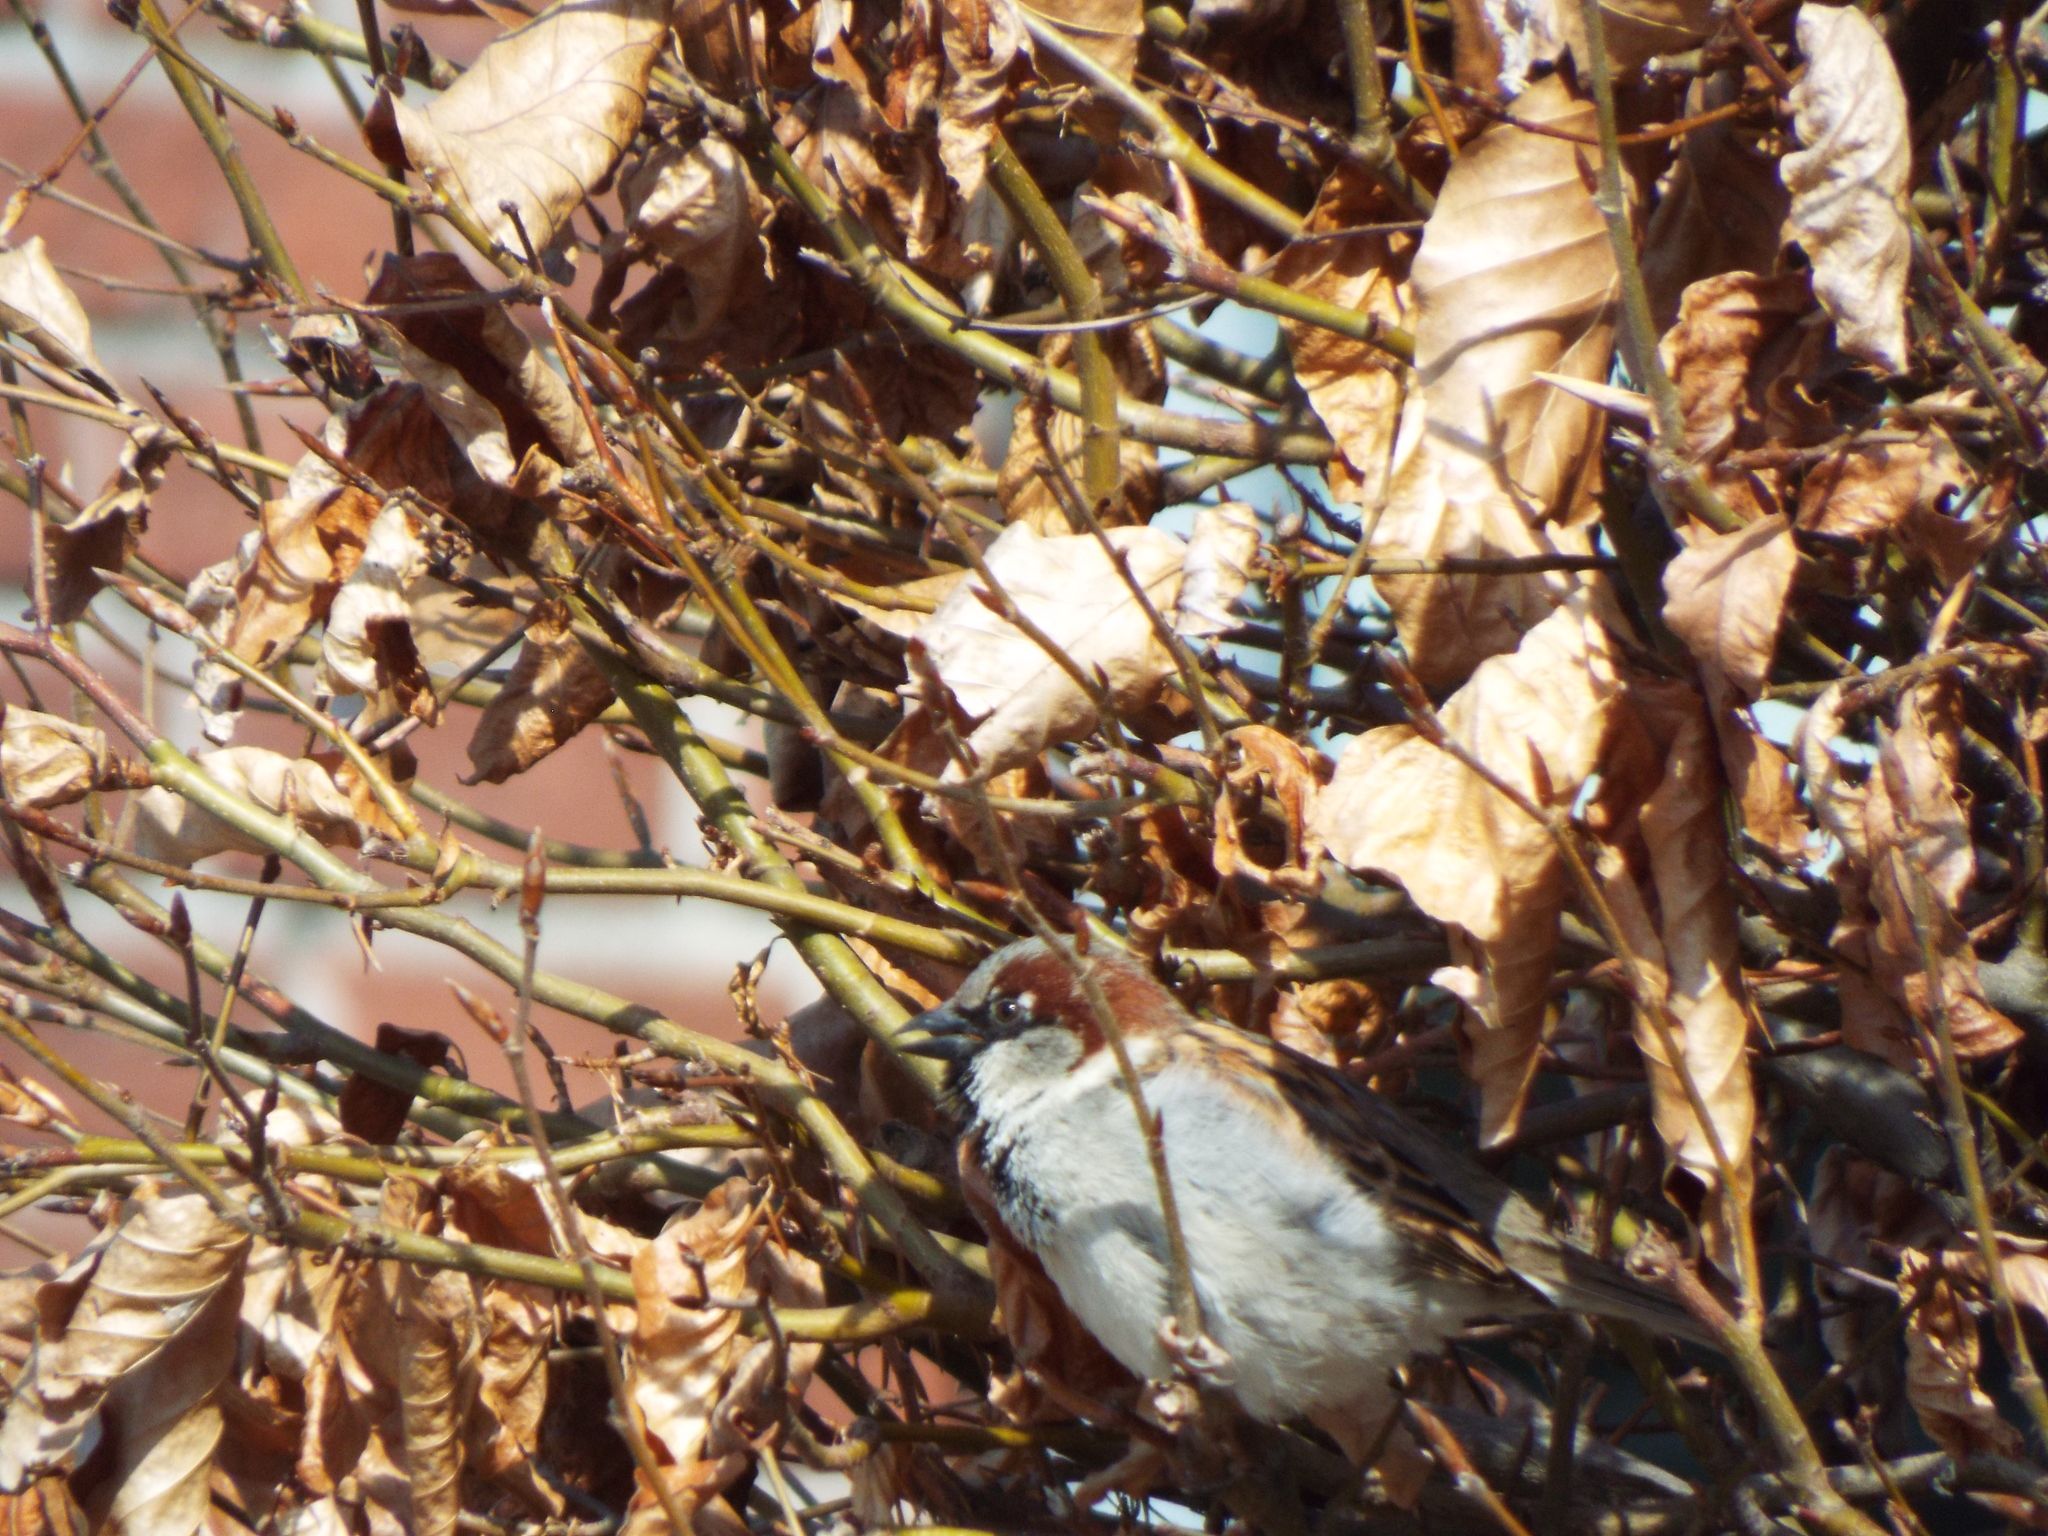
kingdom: Animalia
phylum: Chordata
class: Aves
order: Passeriformes
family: Passeridae
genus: Passer
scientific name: Passer domesticus
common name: House sparrow
